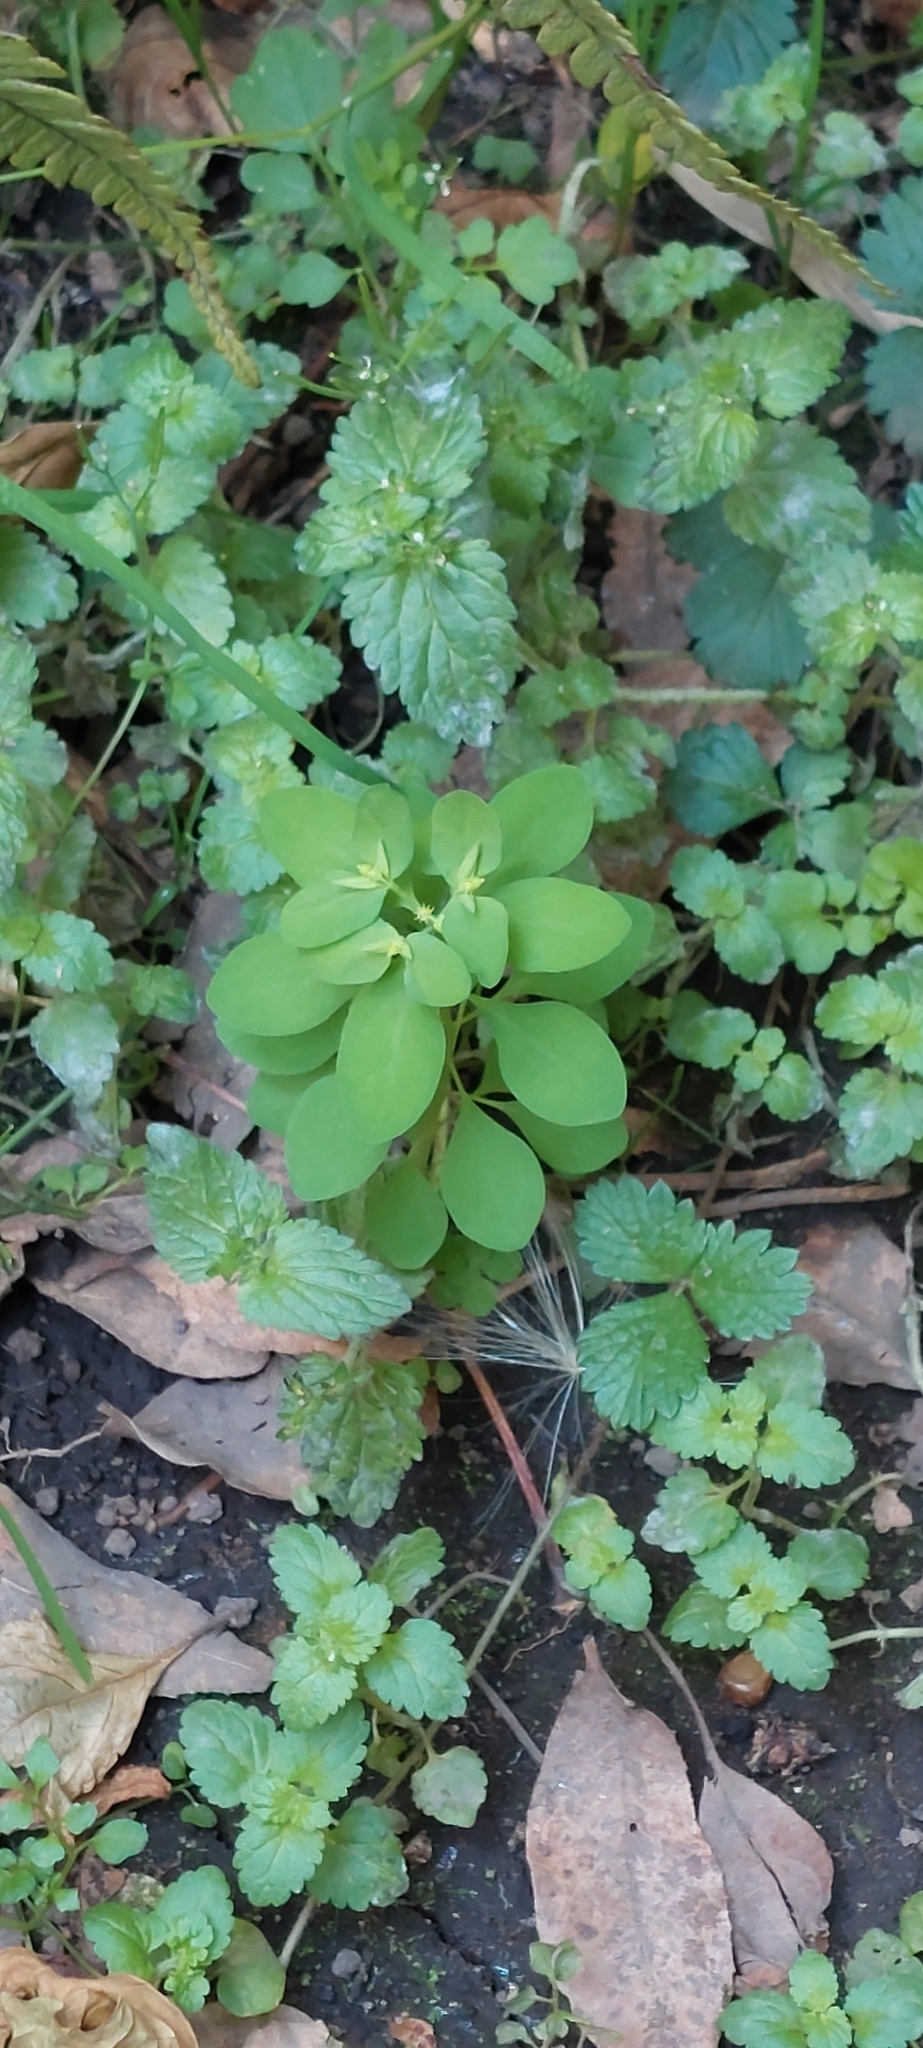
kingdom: Plantae
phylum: Tracheophyta
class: Magnoliopsida
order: Malpighiales
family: Euphorbiaceae
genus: Euphorbia
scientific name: Euphorbia peplus
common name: Petty spurge
